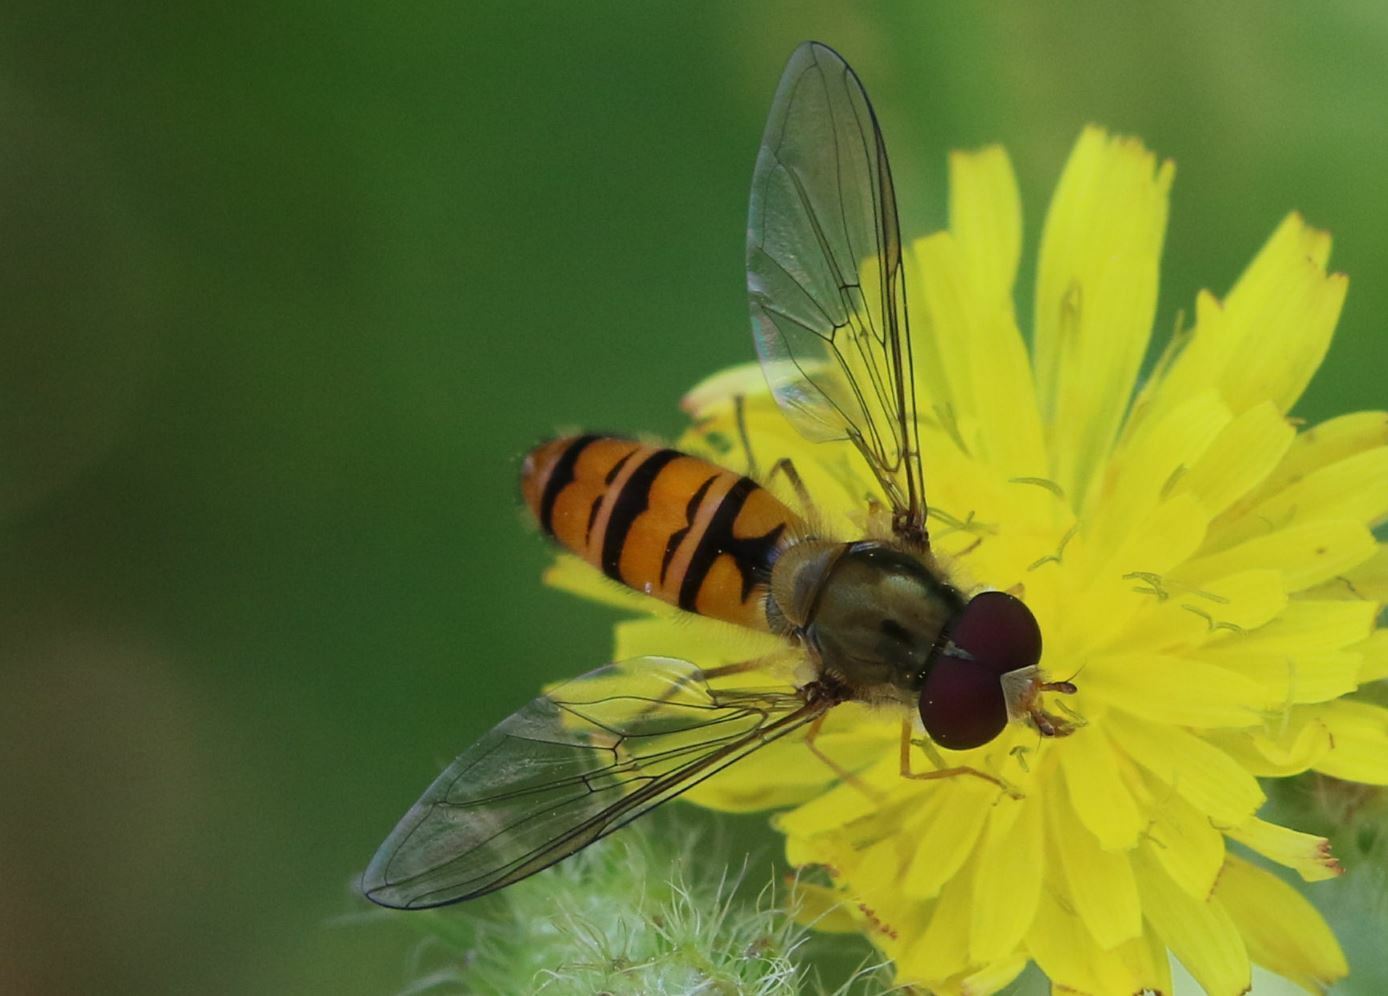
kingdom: Animalia
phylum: Arthropoda
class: Insecta
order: Diptera
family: Syrphidae
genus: Episyrphus
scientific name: Episyrphus balteatus
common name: Marmalade hoverfly
